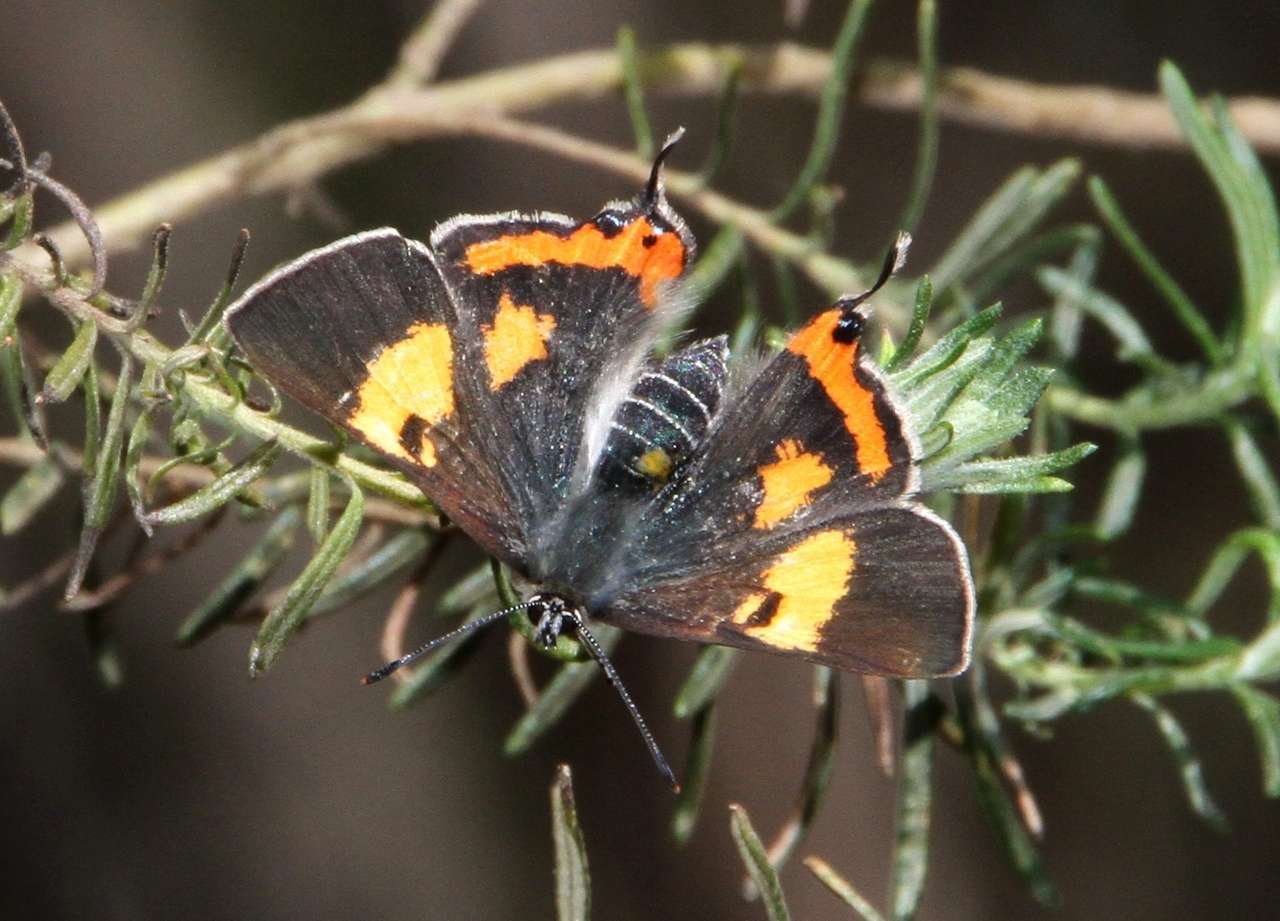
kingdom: Animalia
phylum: Arthropoda
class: Insecta
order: Lepidoptera
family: Lycaenidae
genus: Pseudalmenus
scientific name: Pseudalmenus chlorinda
